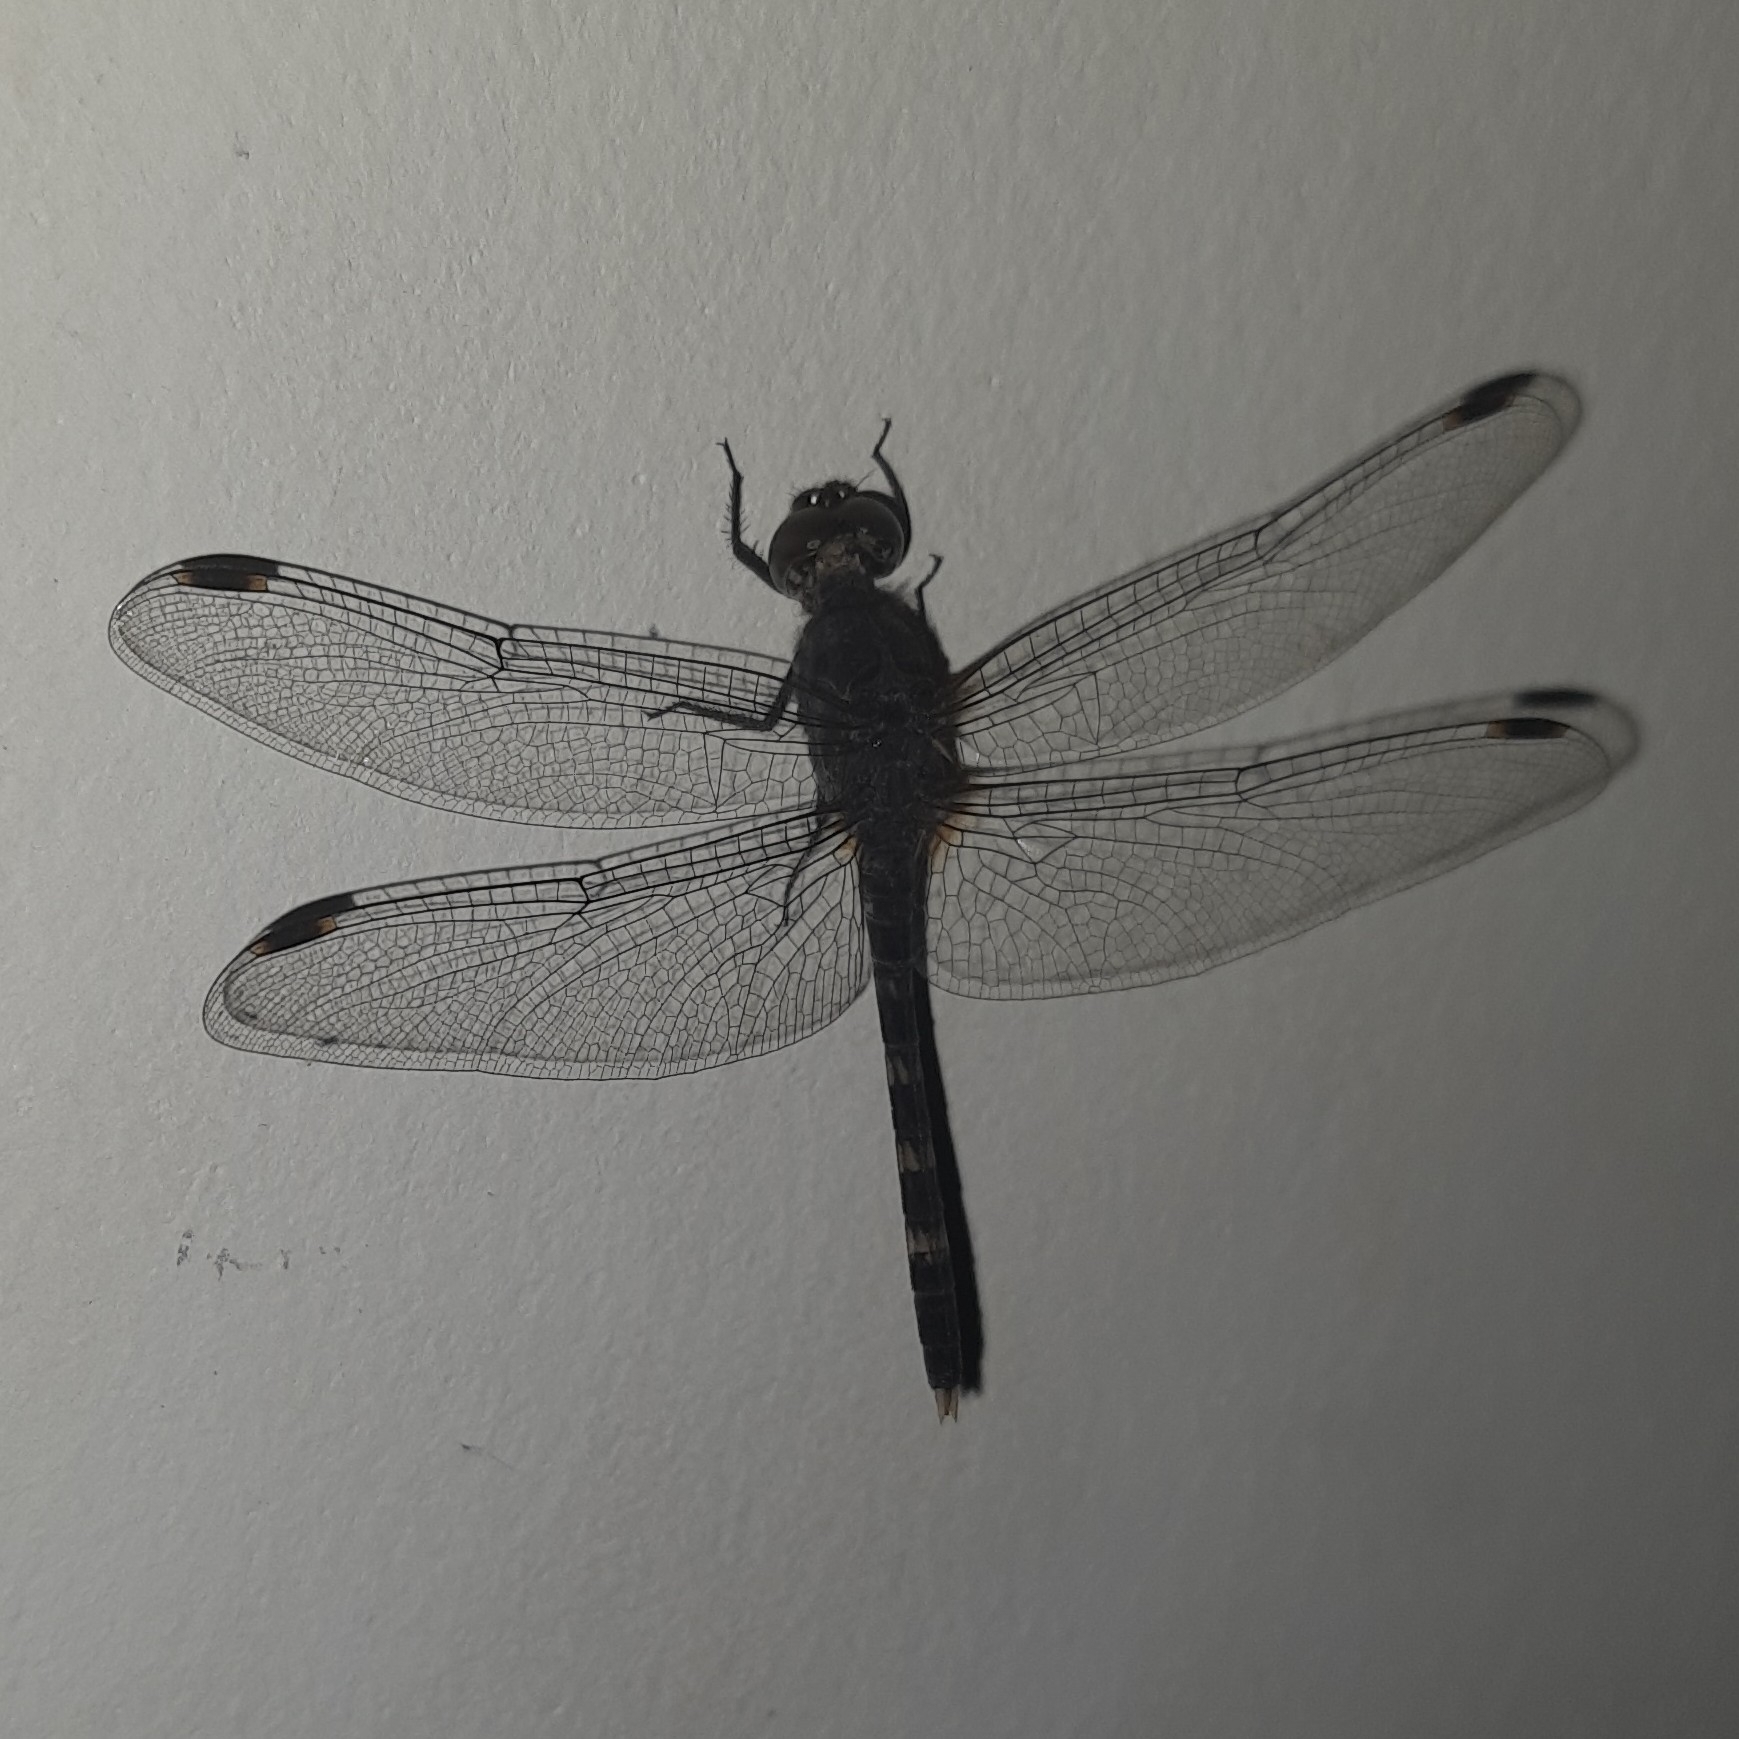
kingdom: Animalia
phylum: Arthropoda
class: Insecta
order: Odonata
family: Libellulidae
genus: Bradinopyga
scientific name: Bradinopyga geminata
